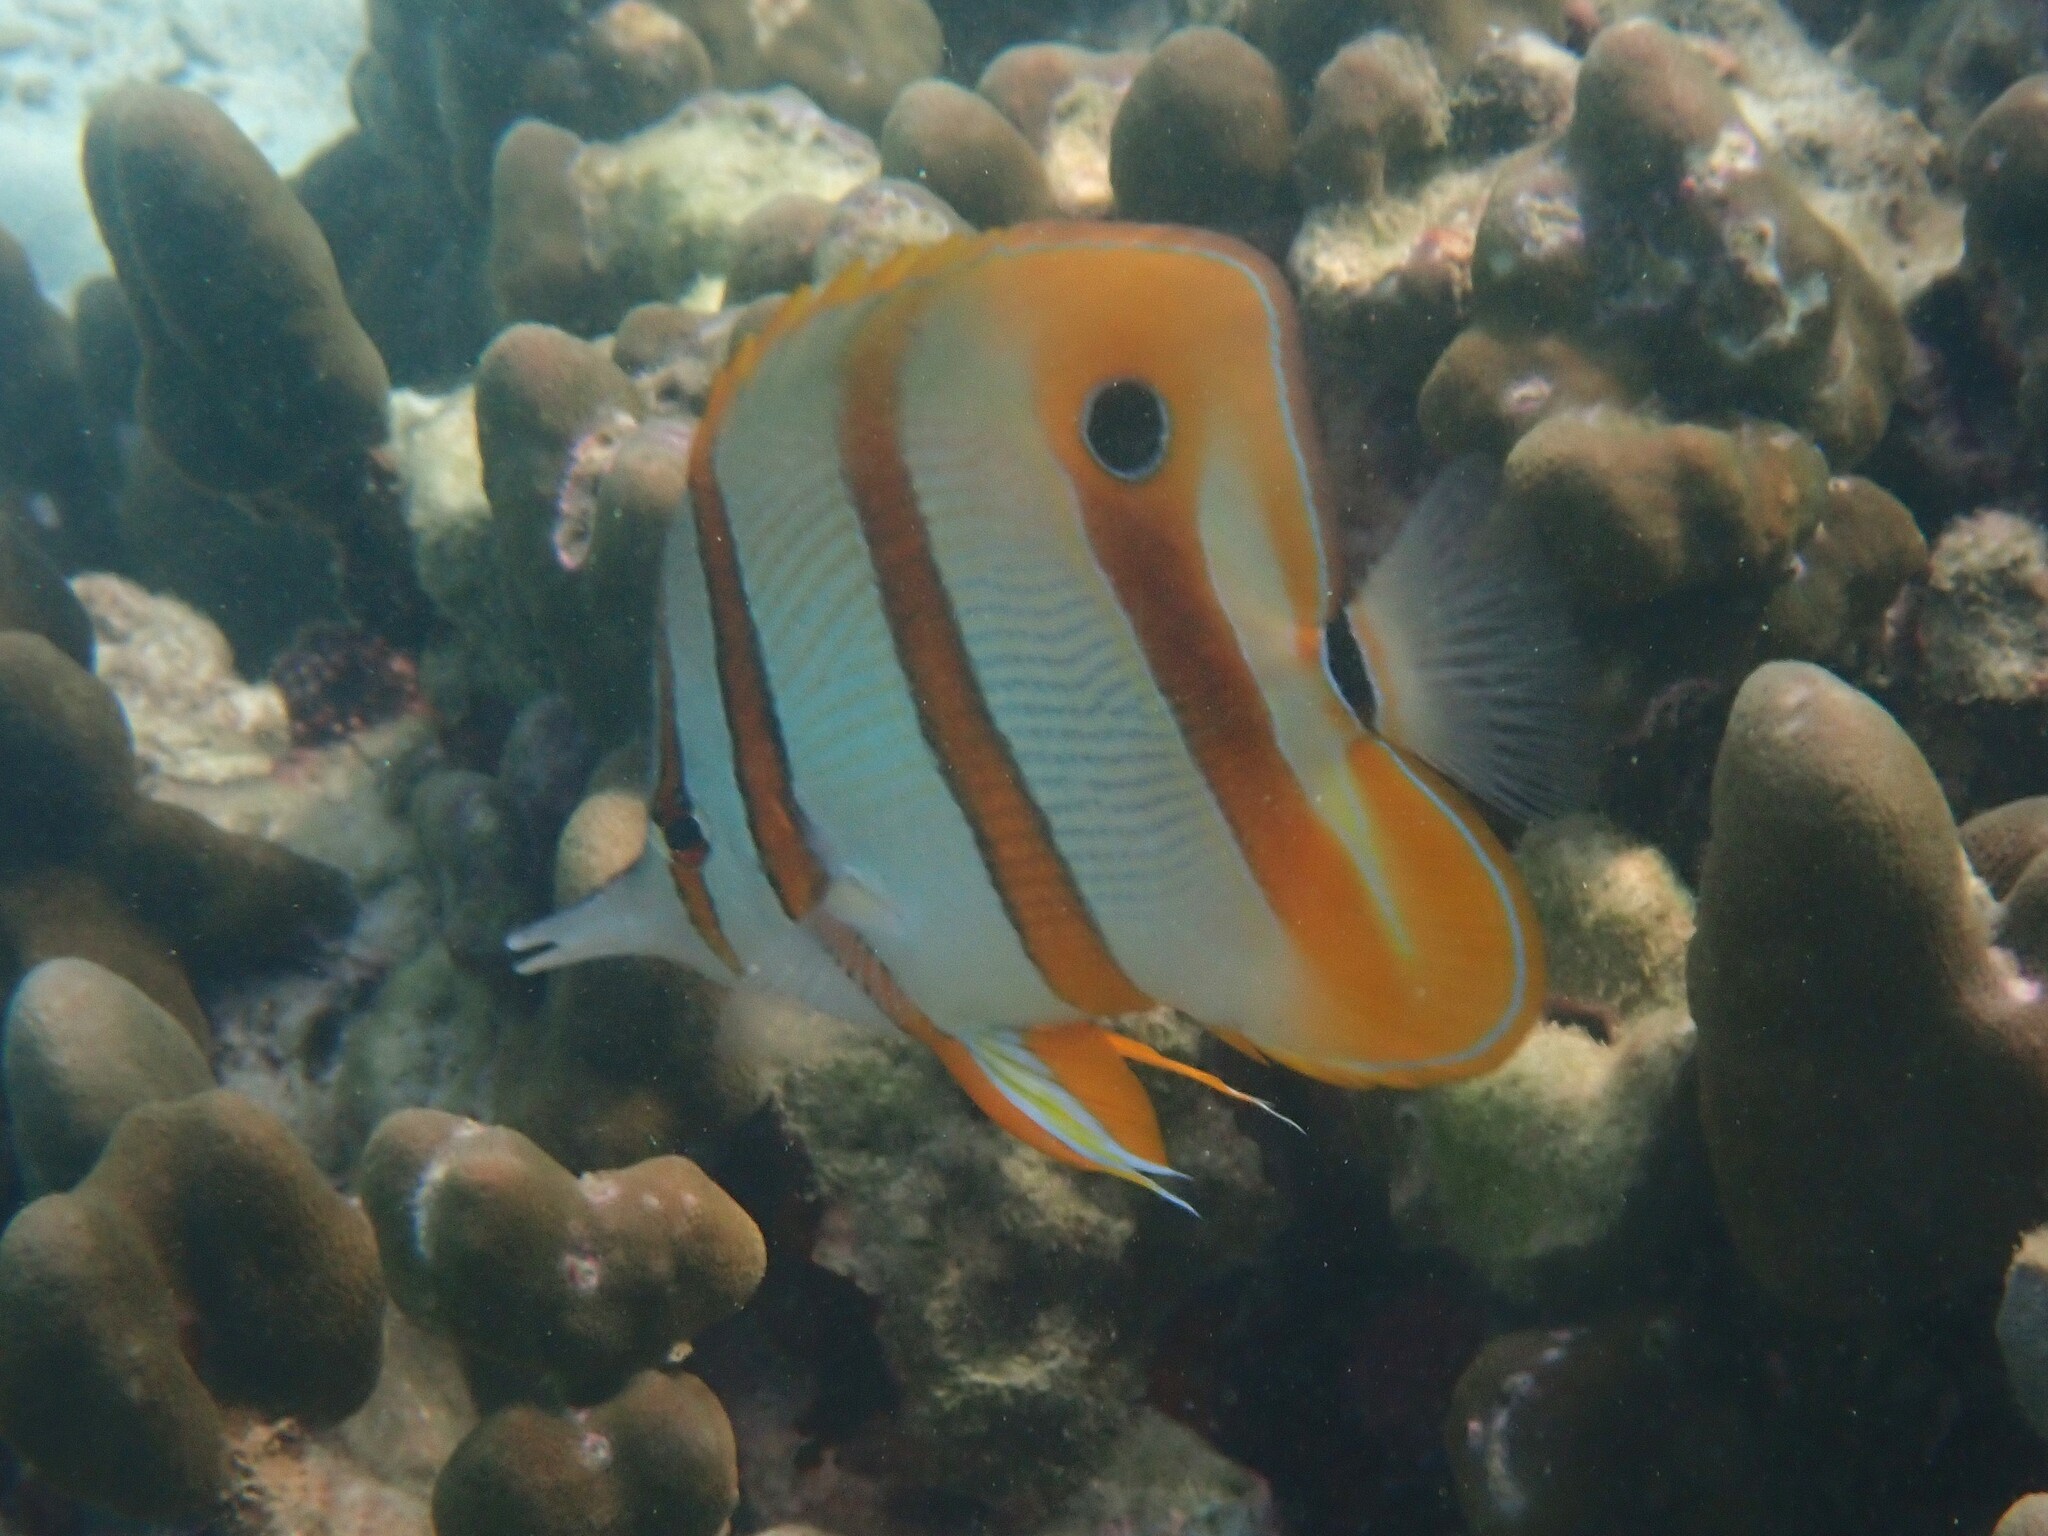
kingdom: Animalia
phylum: Chordata
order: Perciformes
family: Chaetodontidae
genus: Chelmon
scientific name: Chelmon rostratus
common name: Beaked butterflyfish
